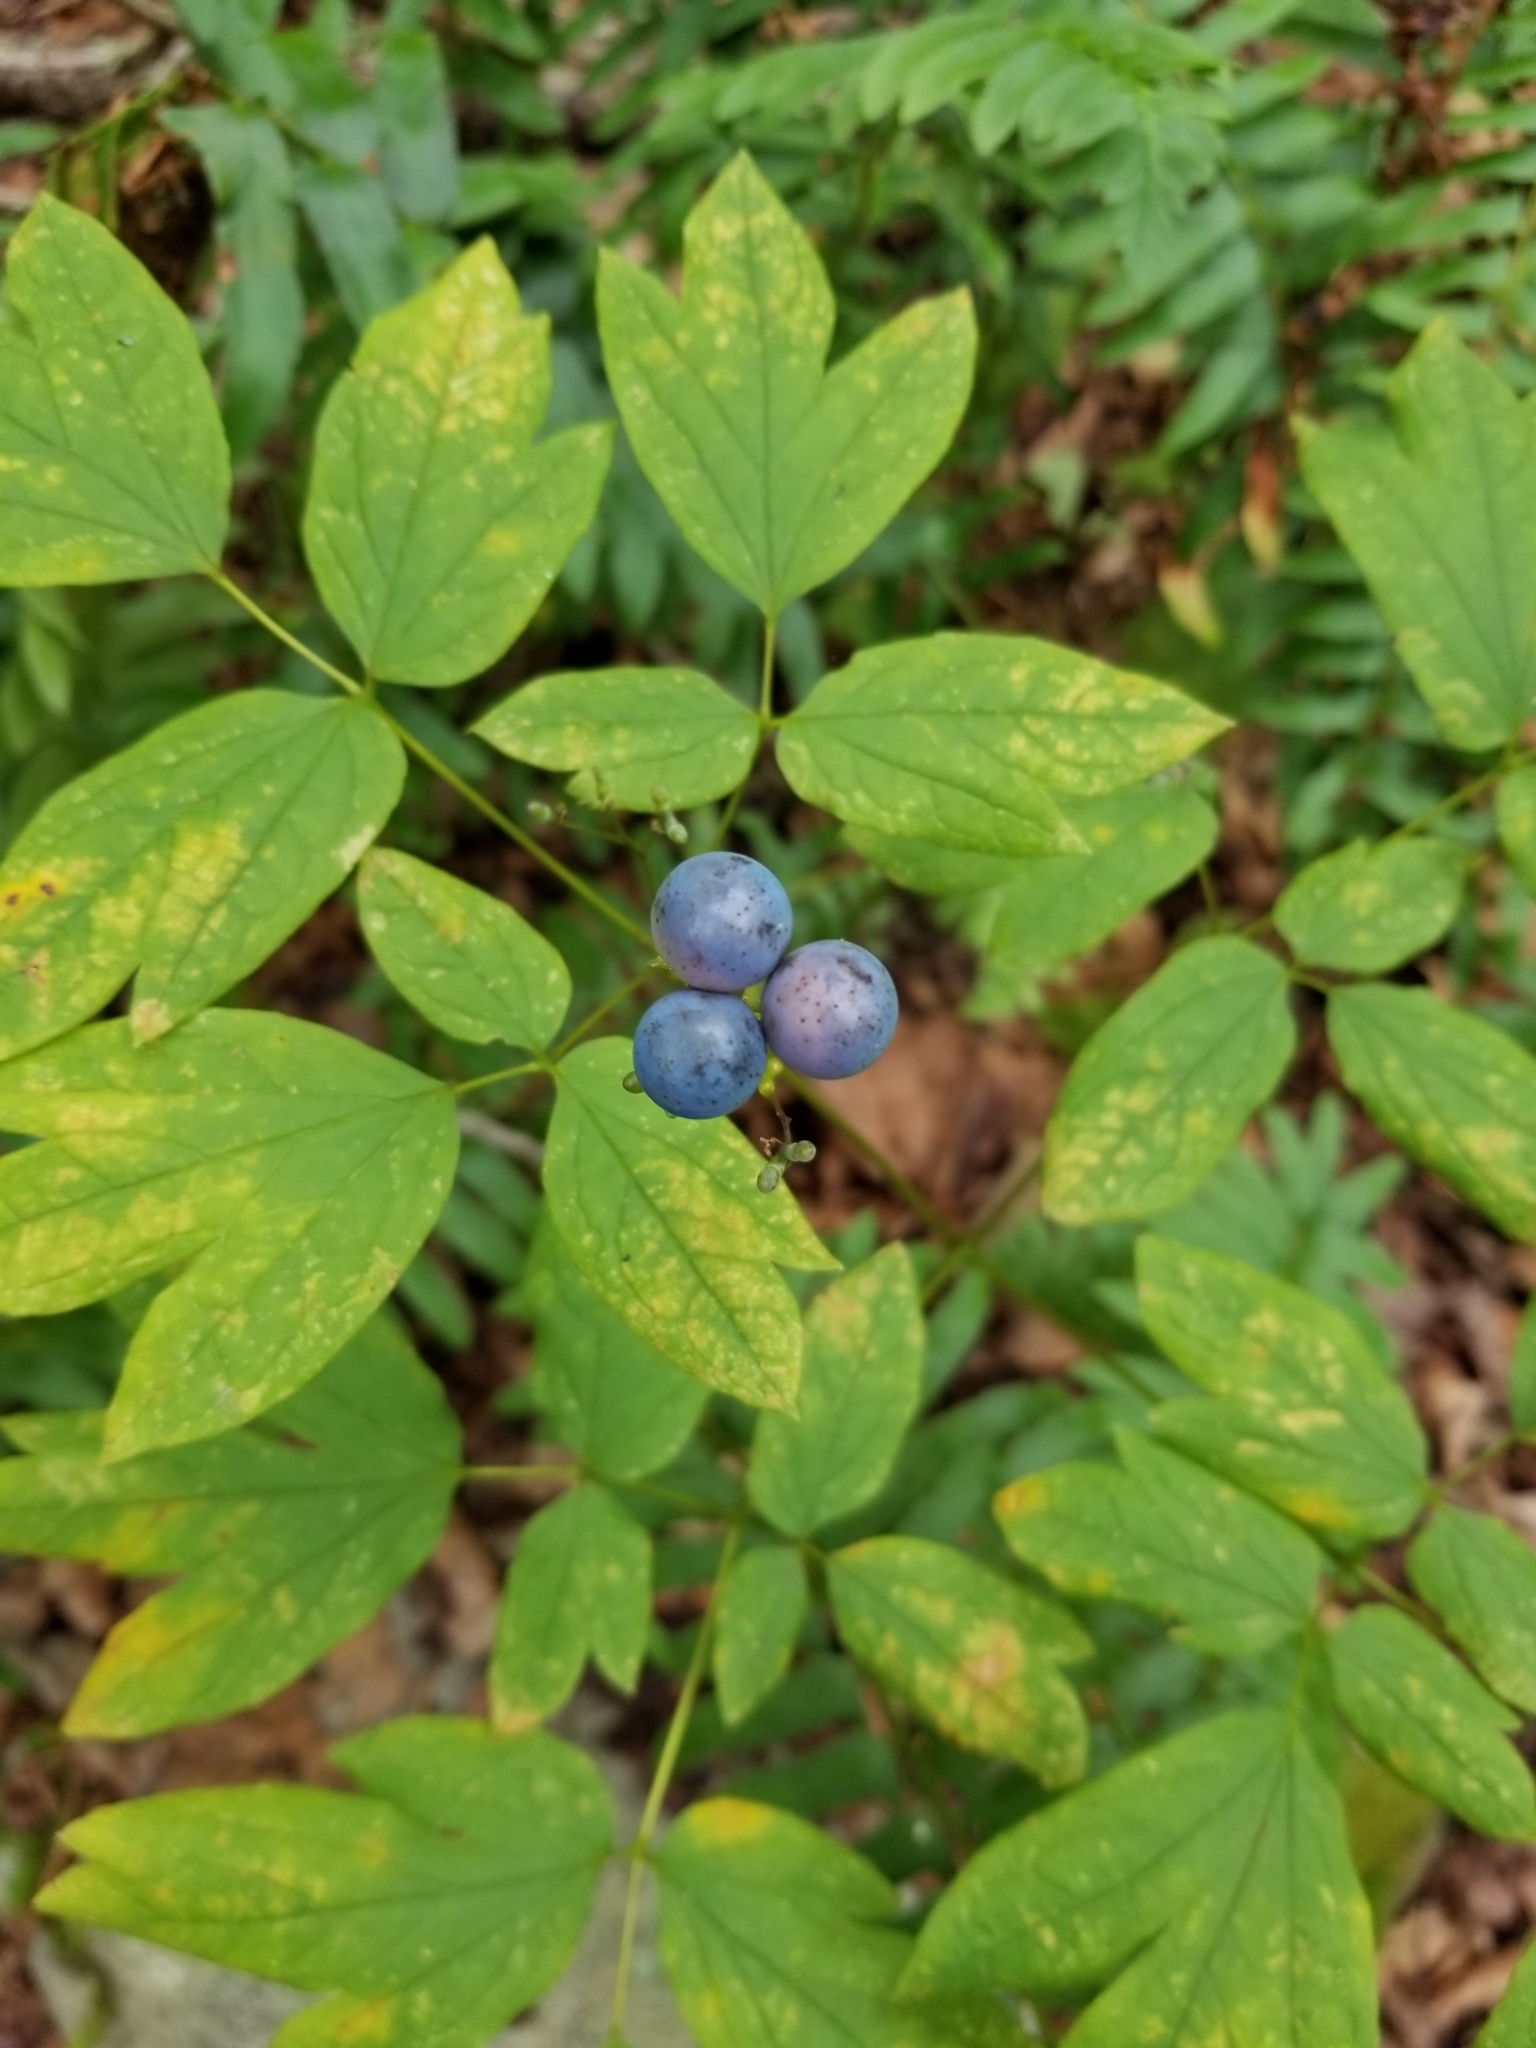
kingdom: Plantae
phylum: Tracheophyta
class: Magnoliopsida
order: Ranunculales
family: Berberidaceae
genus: Caulophyllum
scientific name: Caulophyllum thalictroides
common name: Blue cohosh
